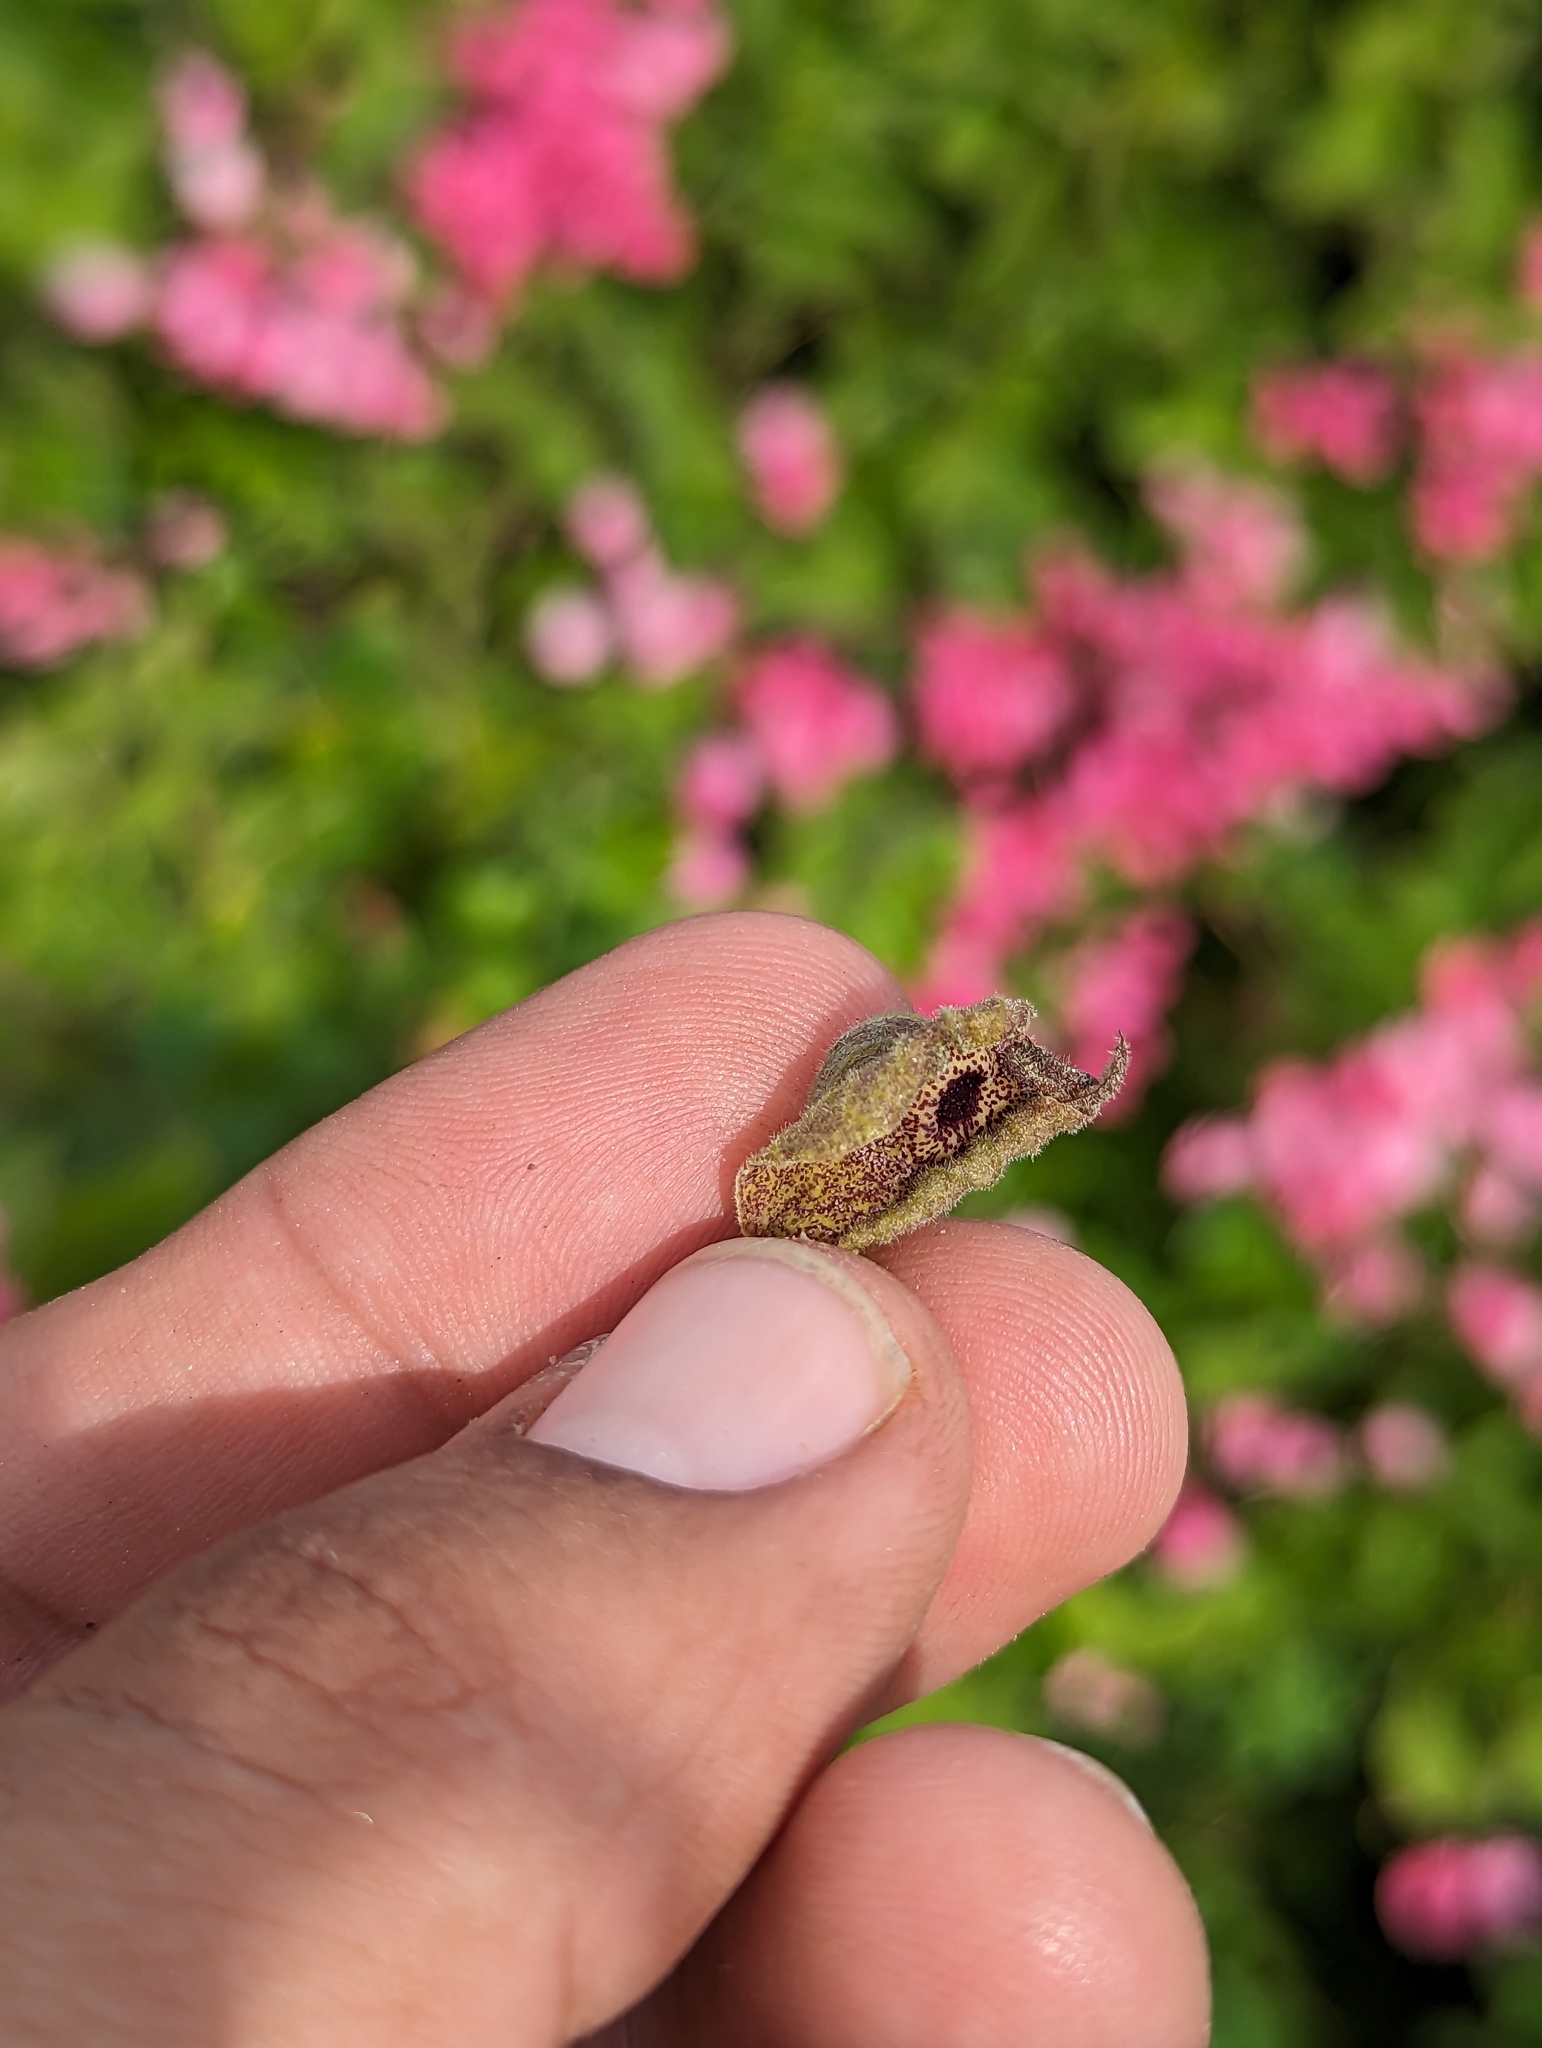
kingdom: Plantae
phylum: Tracheophyta
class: Magnoliopsida
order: Piperales
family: Aristolochiaceae
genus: Aristolochia
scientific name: Aristolochia monticola
